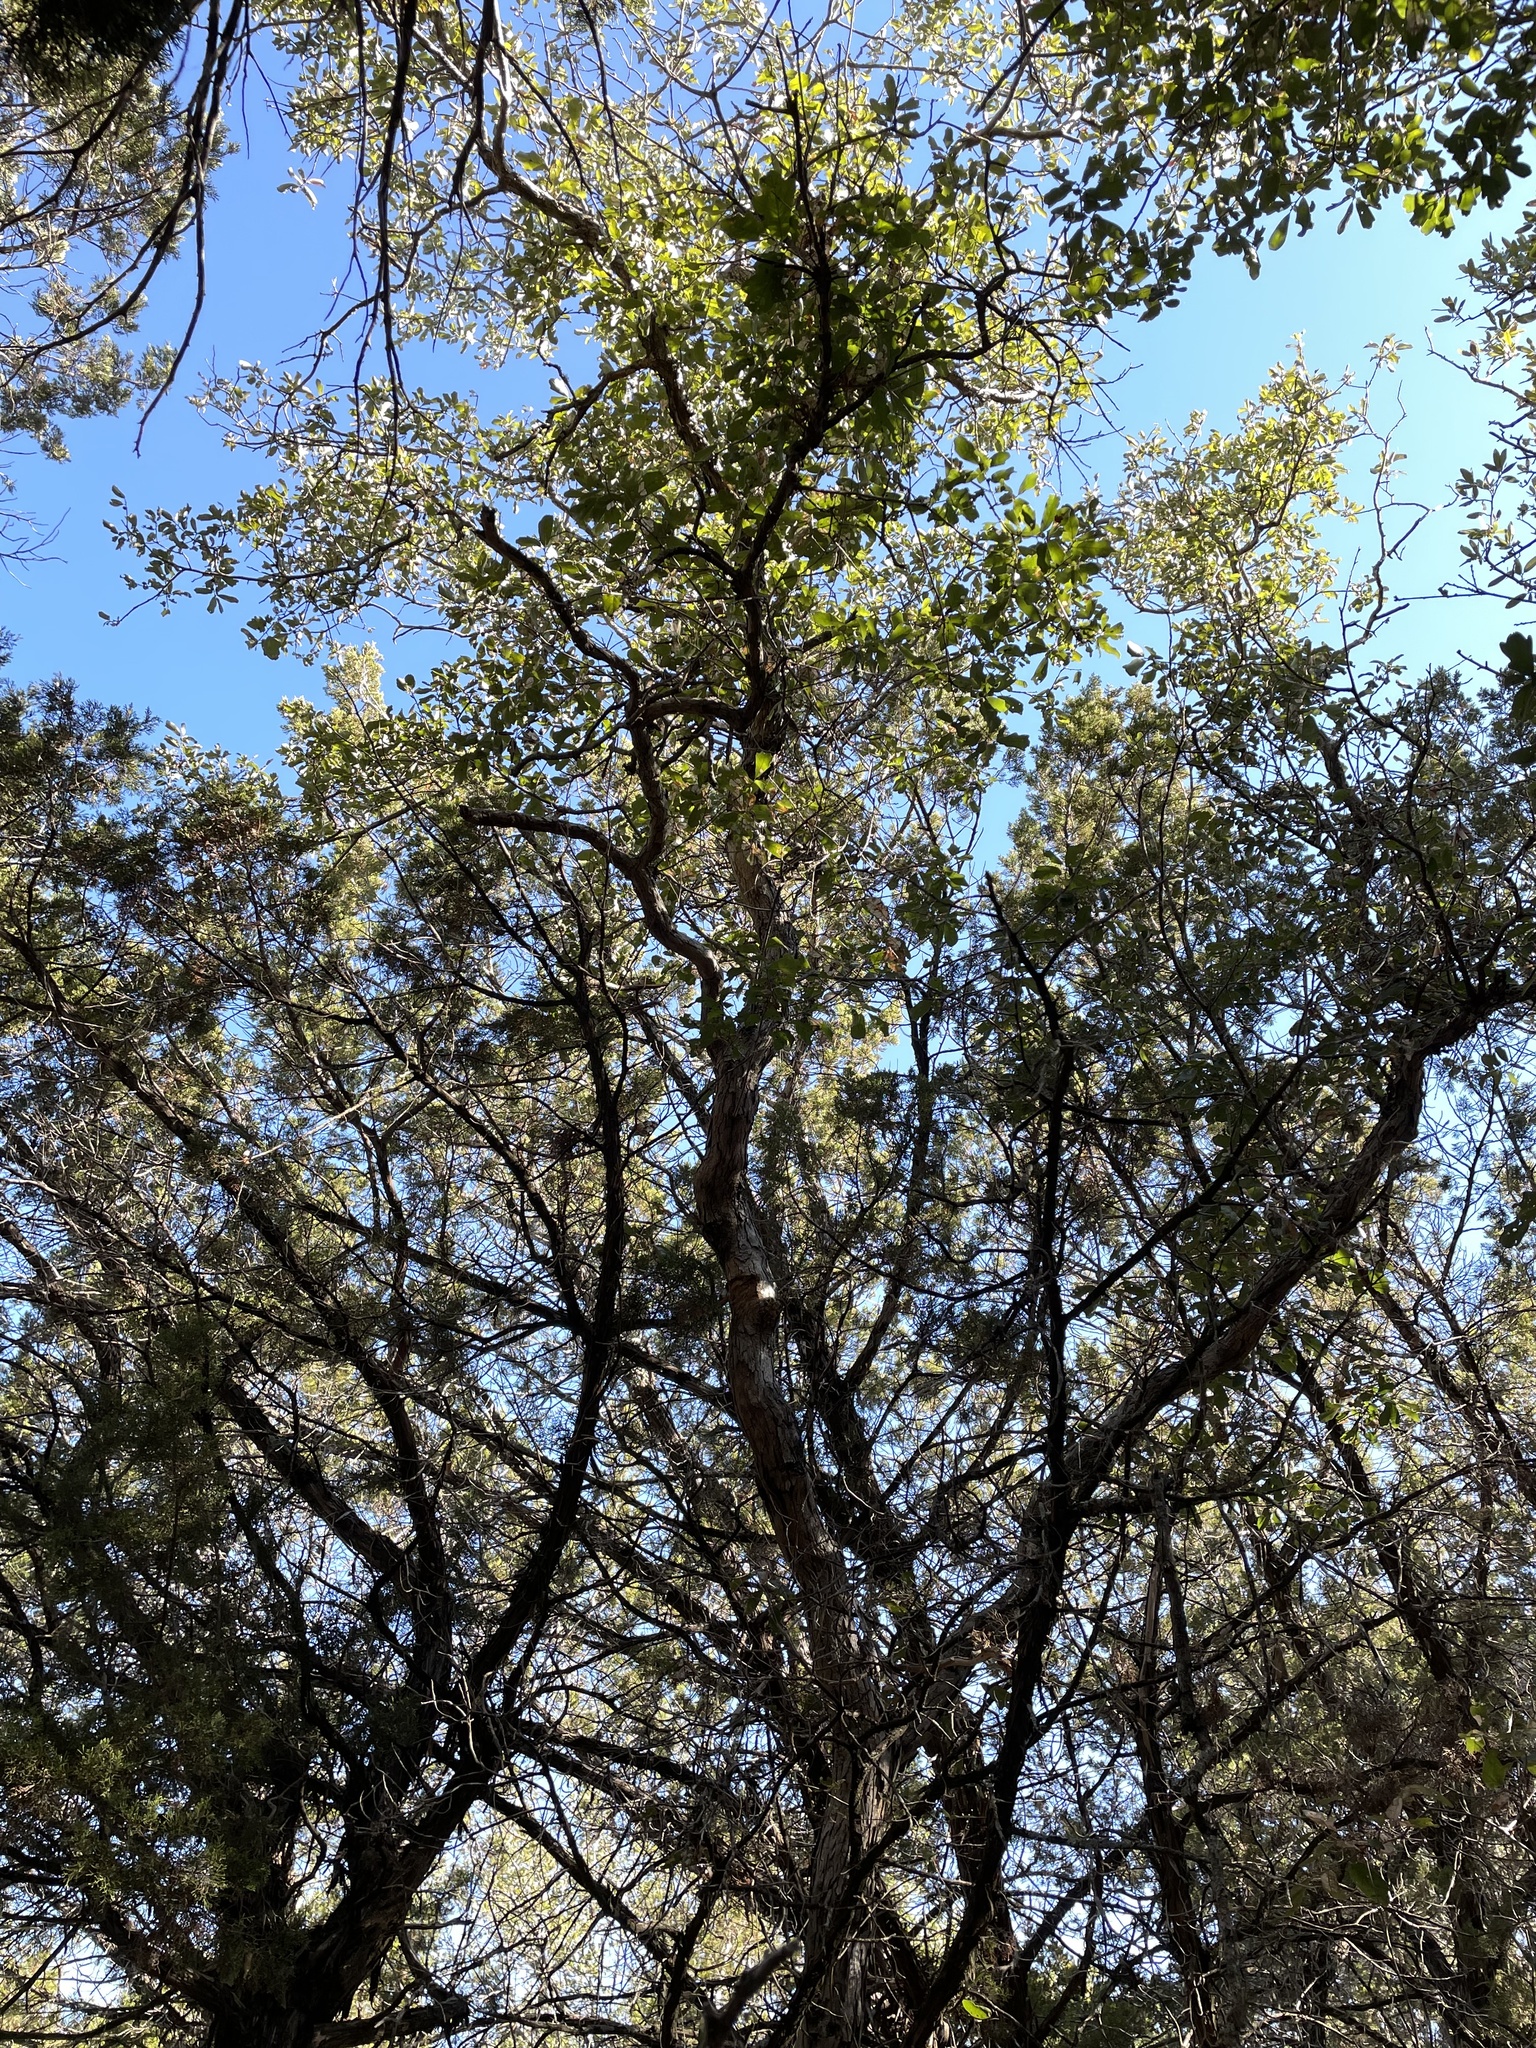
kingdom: Plantae
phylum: Tracheophyta
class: Magnoliopsida
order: Fagales
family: Fagaceae
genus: Quercus
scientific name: Quercus sinuata
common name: Durand oak
